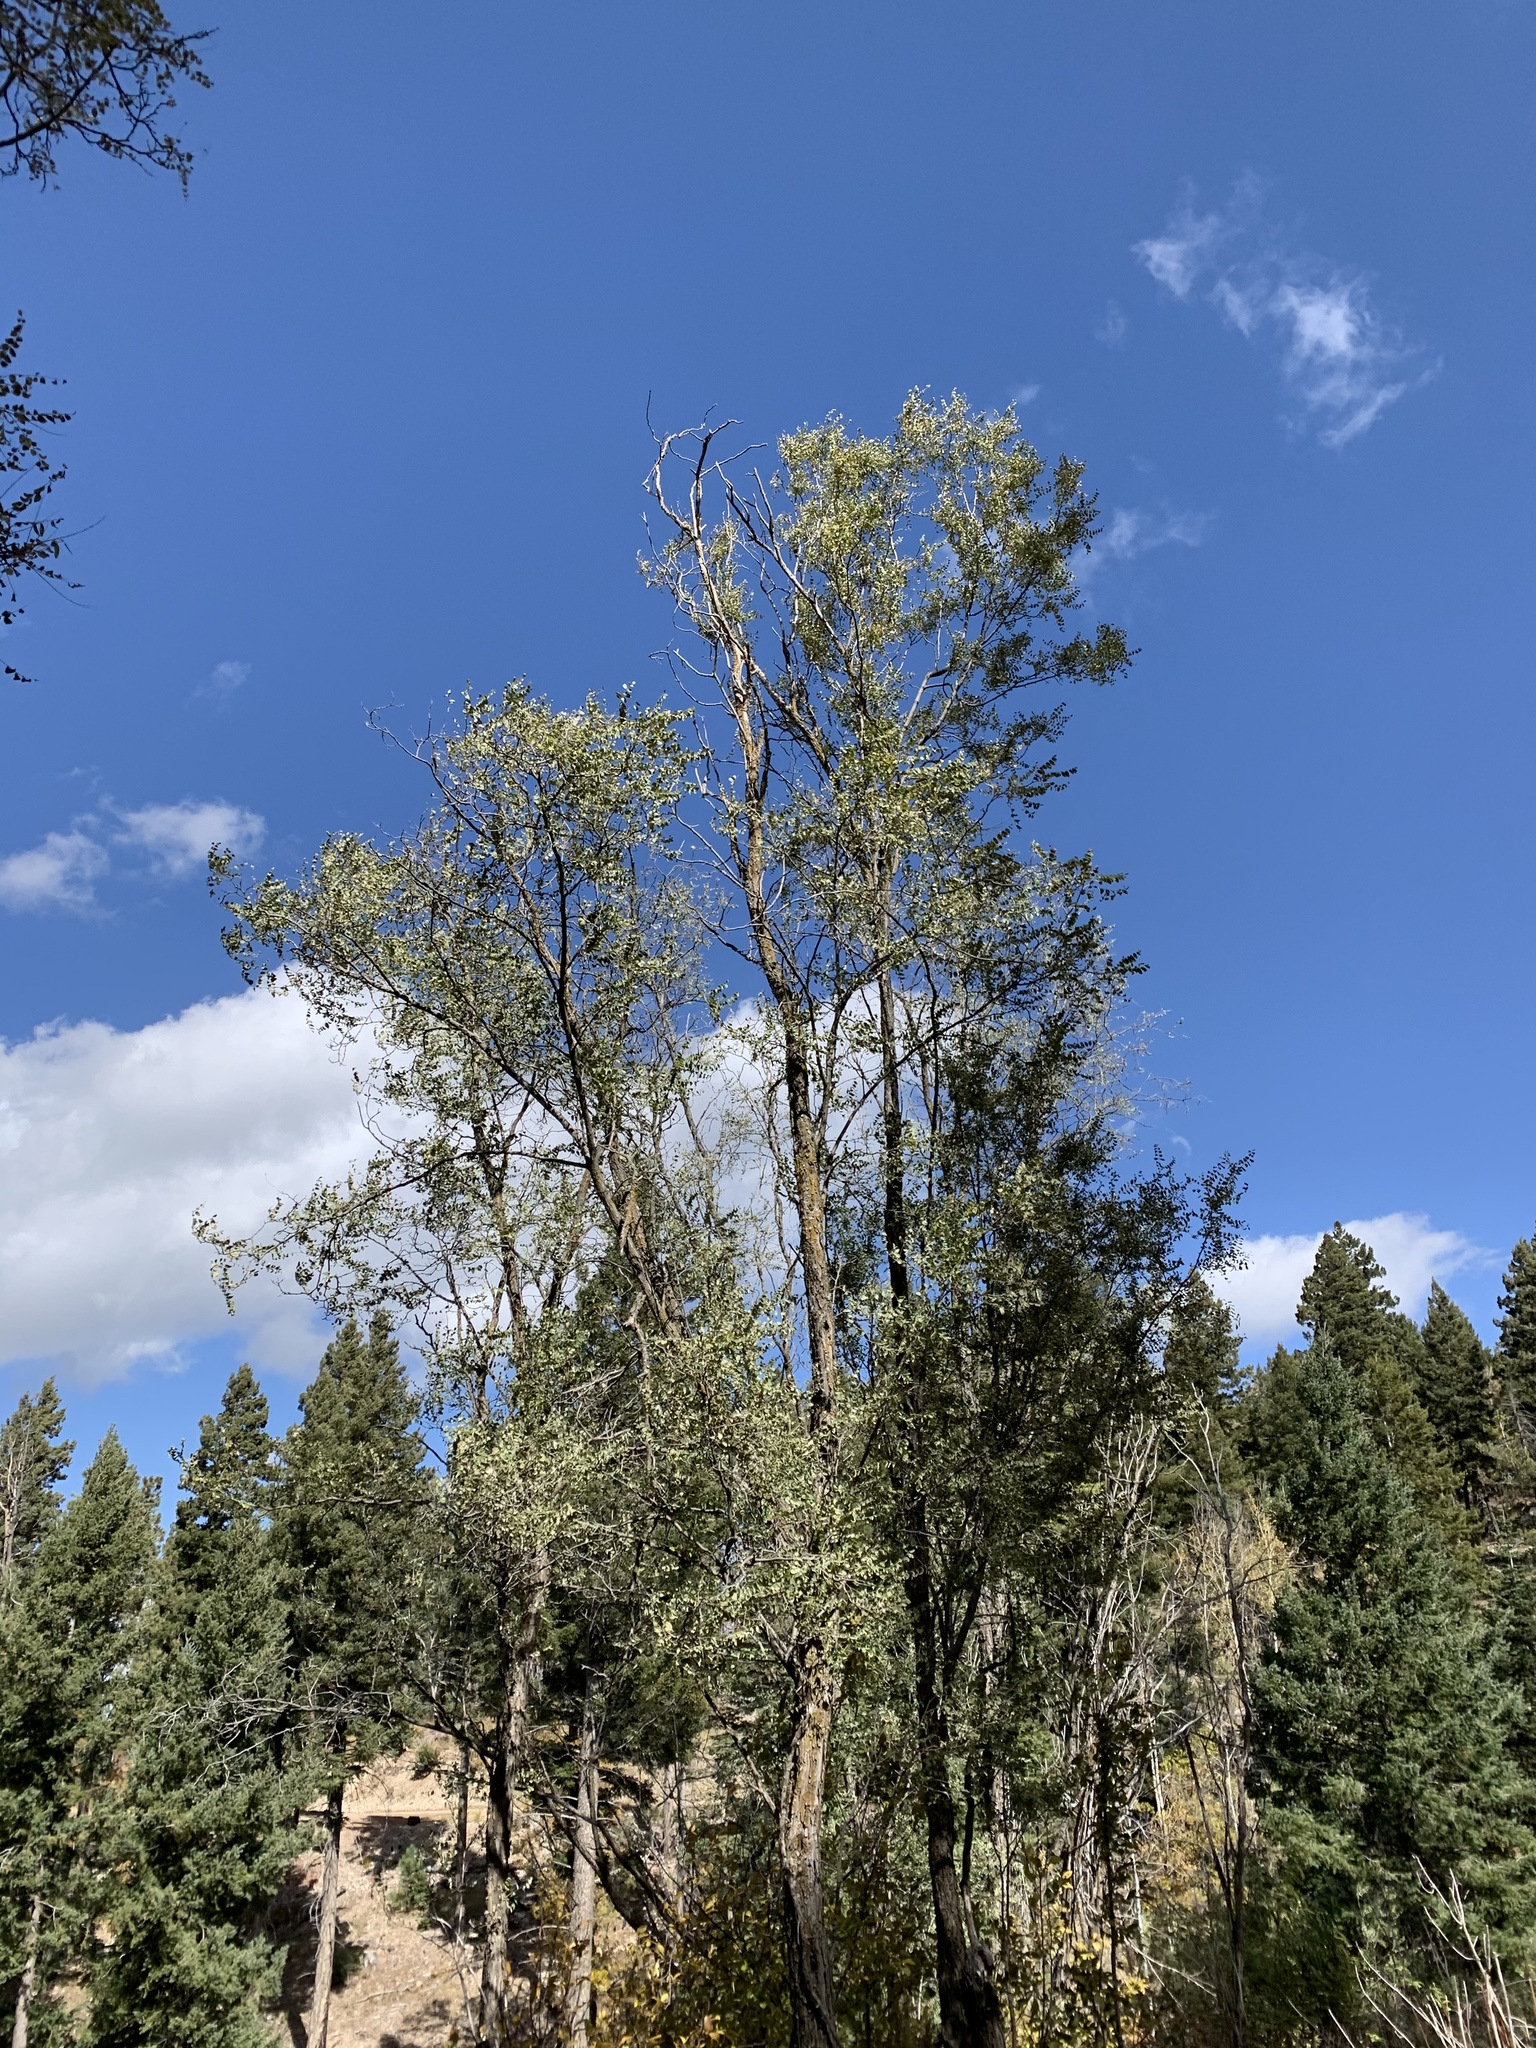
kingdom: Plantae
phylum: Tracheophyta
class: Magnoliopsida
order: Fabales
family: Fabaceae
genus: Robinia
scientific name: Robinia neomexicana
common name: New mexico locust
